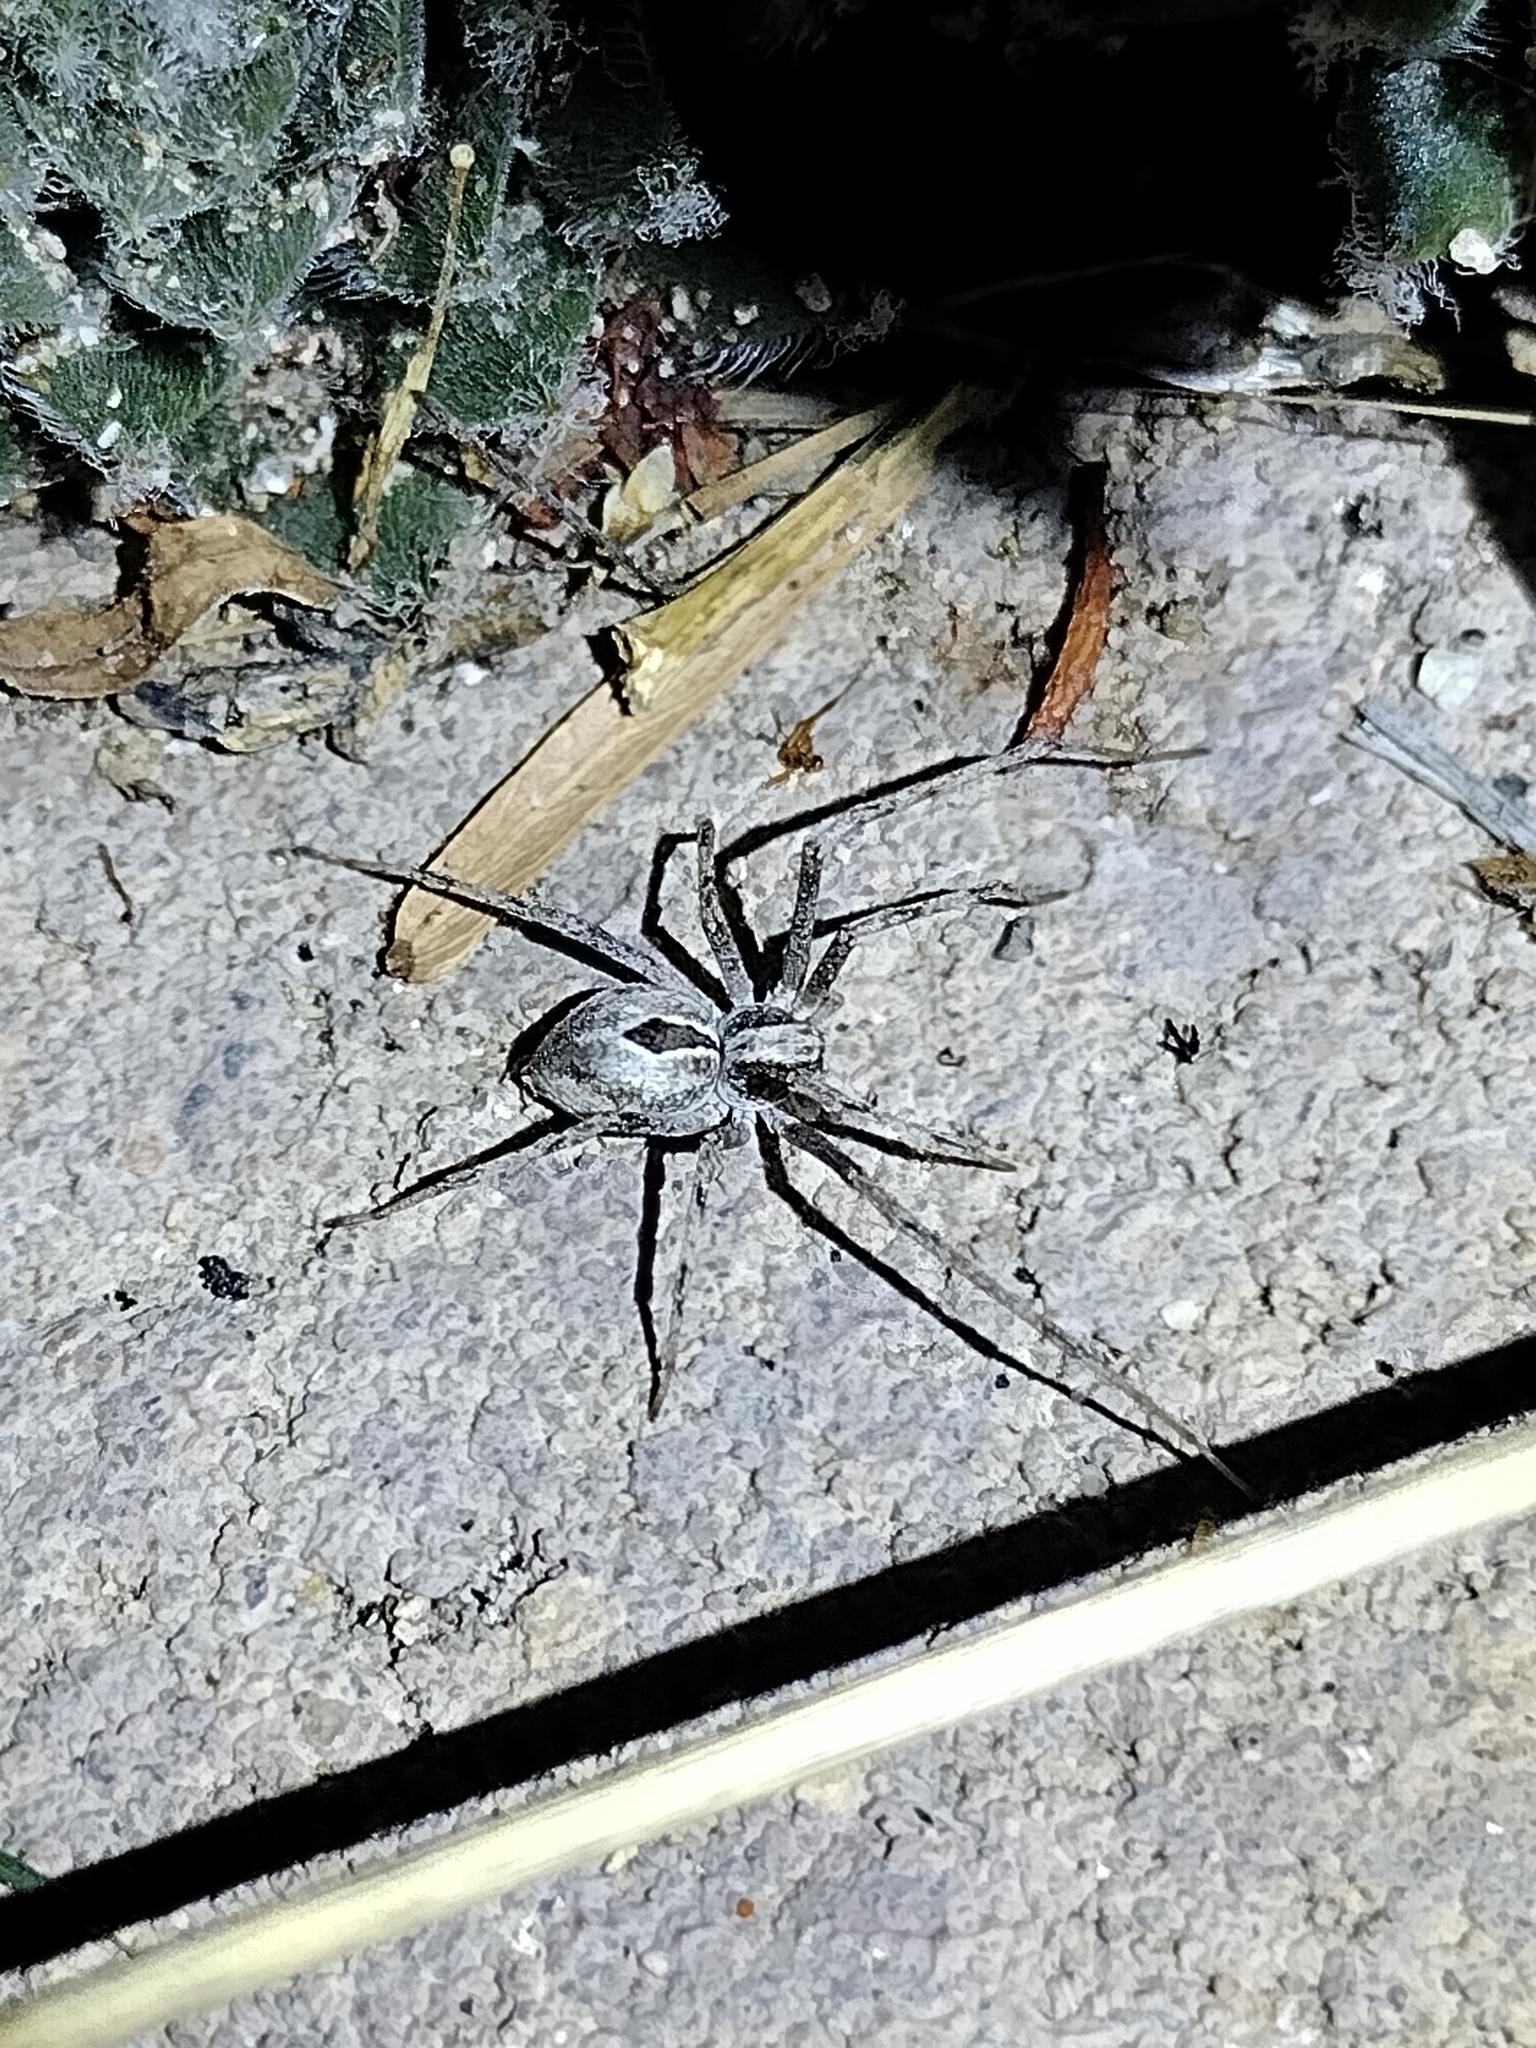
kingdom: Animalia
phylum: Arthropoda
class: Arachnida
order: Araneae
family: Philodromidae
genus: Titanebo
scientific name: Titanebo
